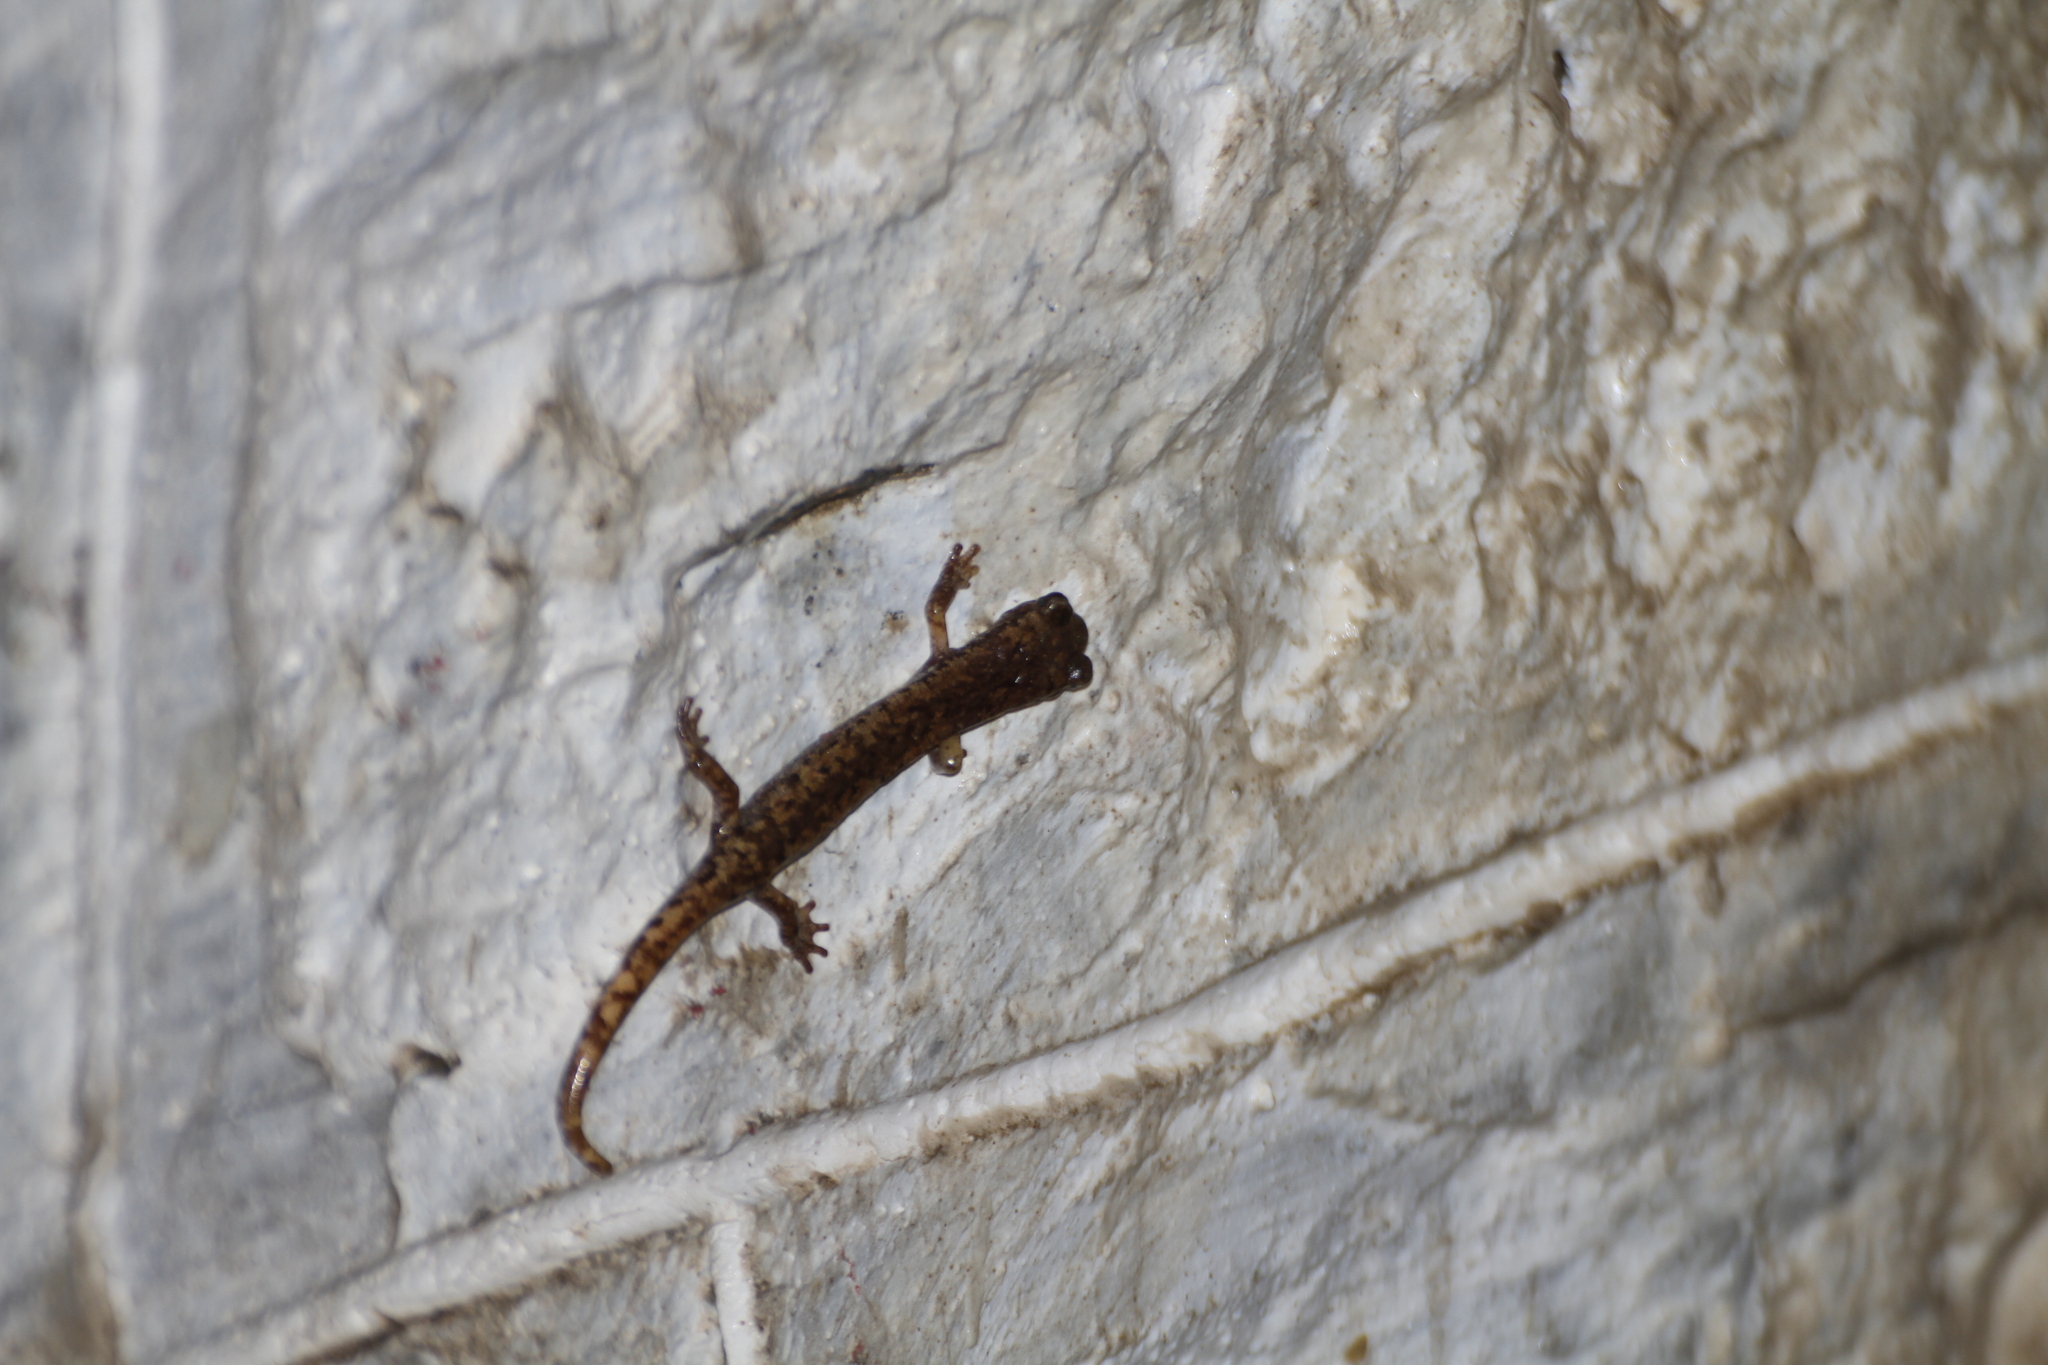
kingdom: Animalia
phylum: Chordata
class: Amphibia
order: Caudata
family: Plethodontidae
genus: Speleomantes
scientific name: Speleomantes strinatii
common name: French cave salamander
